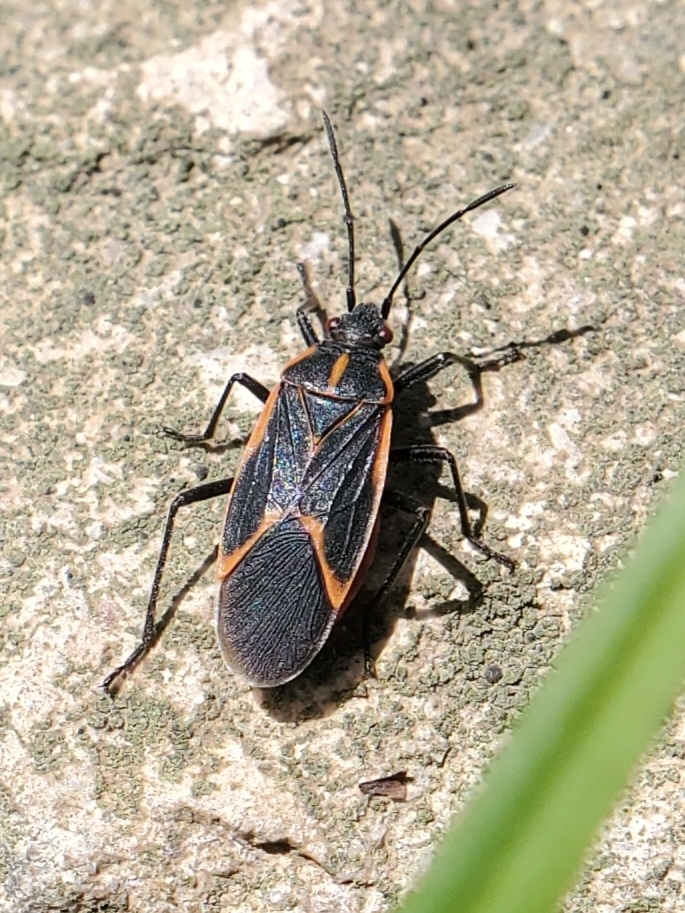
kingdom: Animalia
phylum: Arthropoda
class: Insecta
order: Hemiptera
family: Rhopalidae
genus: Boisea
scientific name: Boisea trivittata
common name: Boxelder bug
